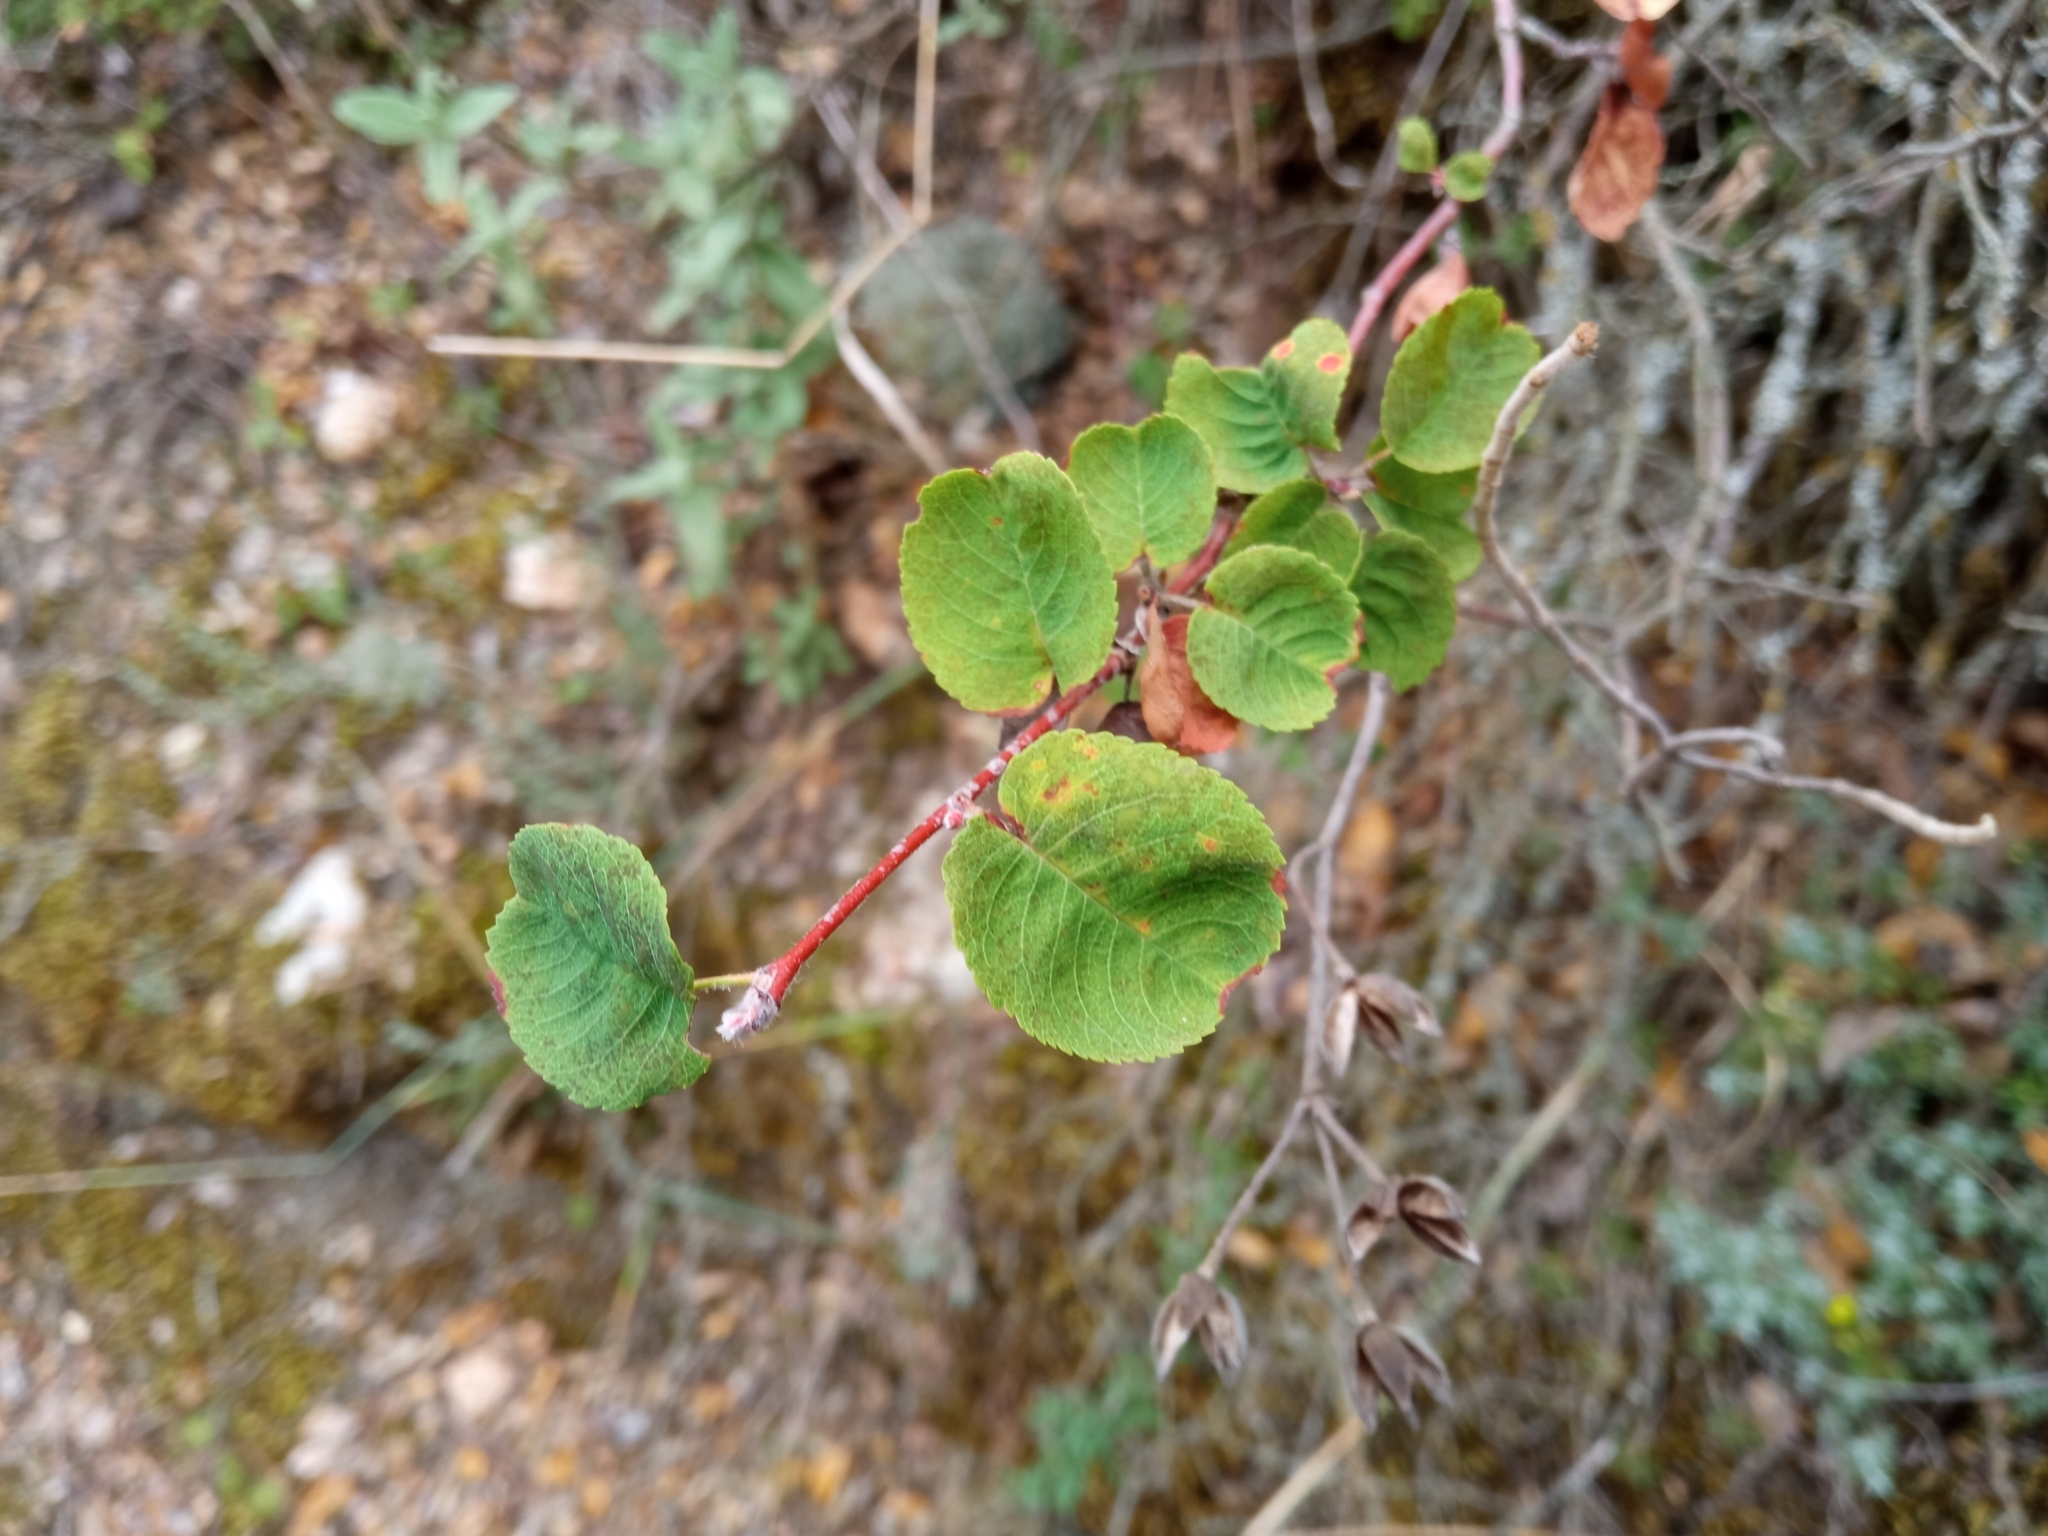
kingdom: Plantae
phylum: Tracheophyta
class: Magnoliopsida
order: Rosales
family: Rosaceae
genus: Amelanchier
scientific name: Amelanchier ovalis
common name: Serviceberry
